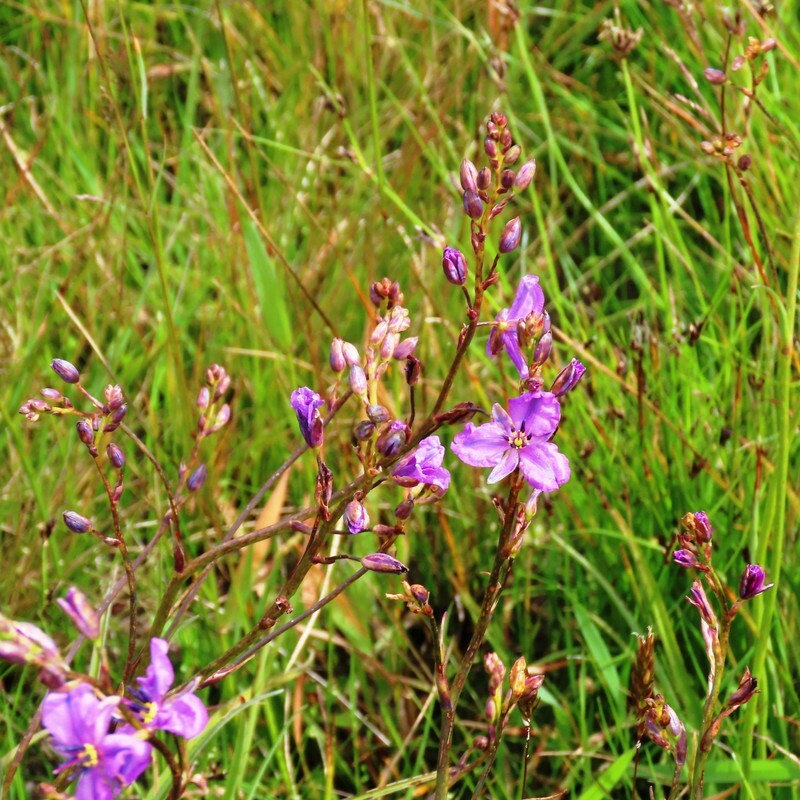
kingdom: Plantae
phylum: Tracheophyta
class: Liliopsida
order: Asparagales
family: Asparagaceae
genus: Arthropodium
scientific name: Arthropodium strictum
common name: Chocolate-lily
